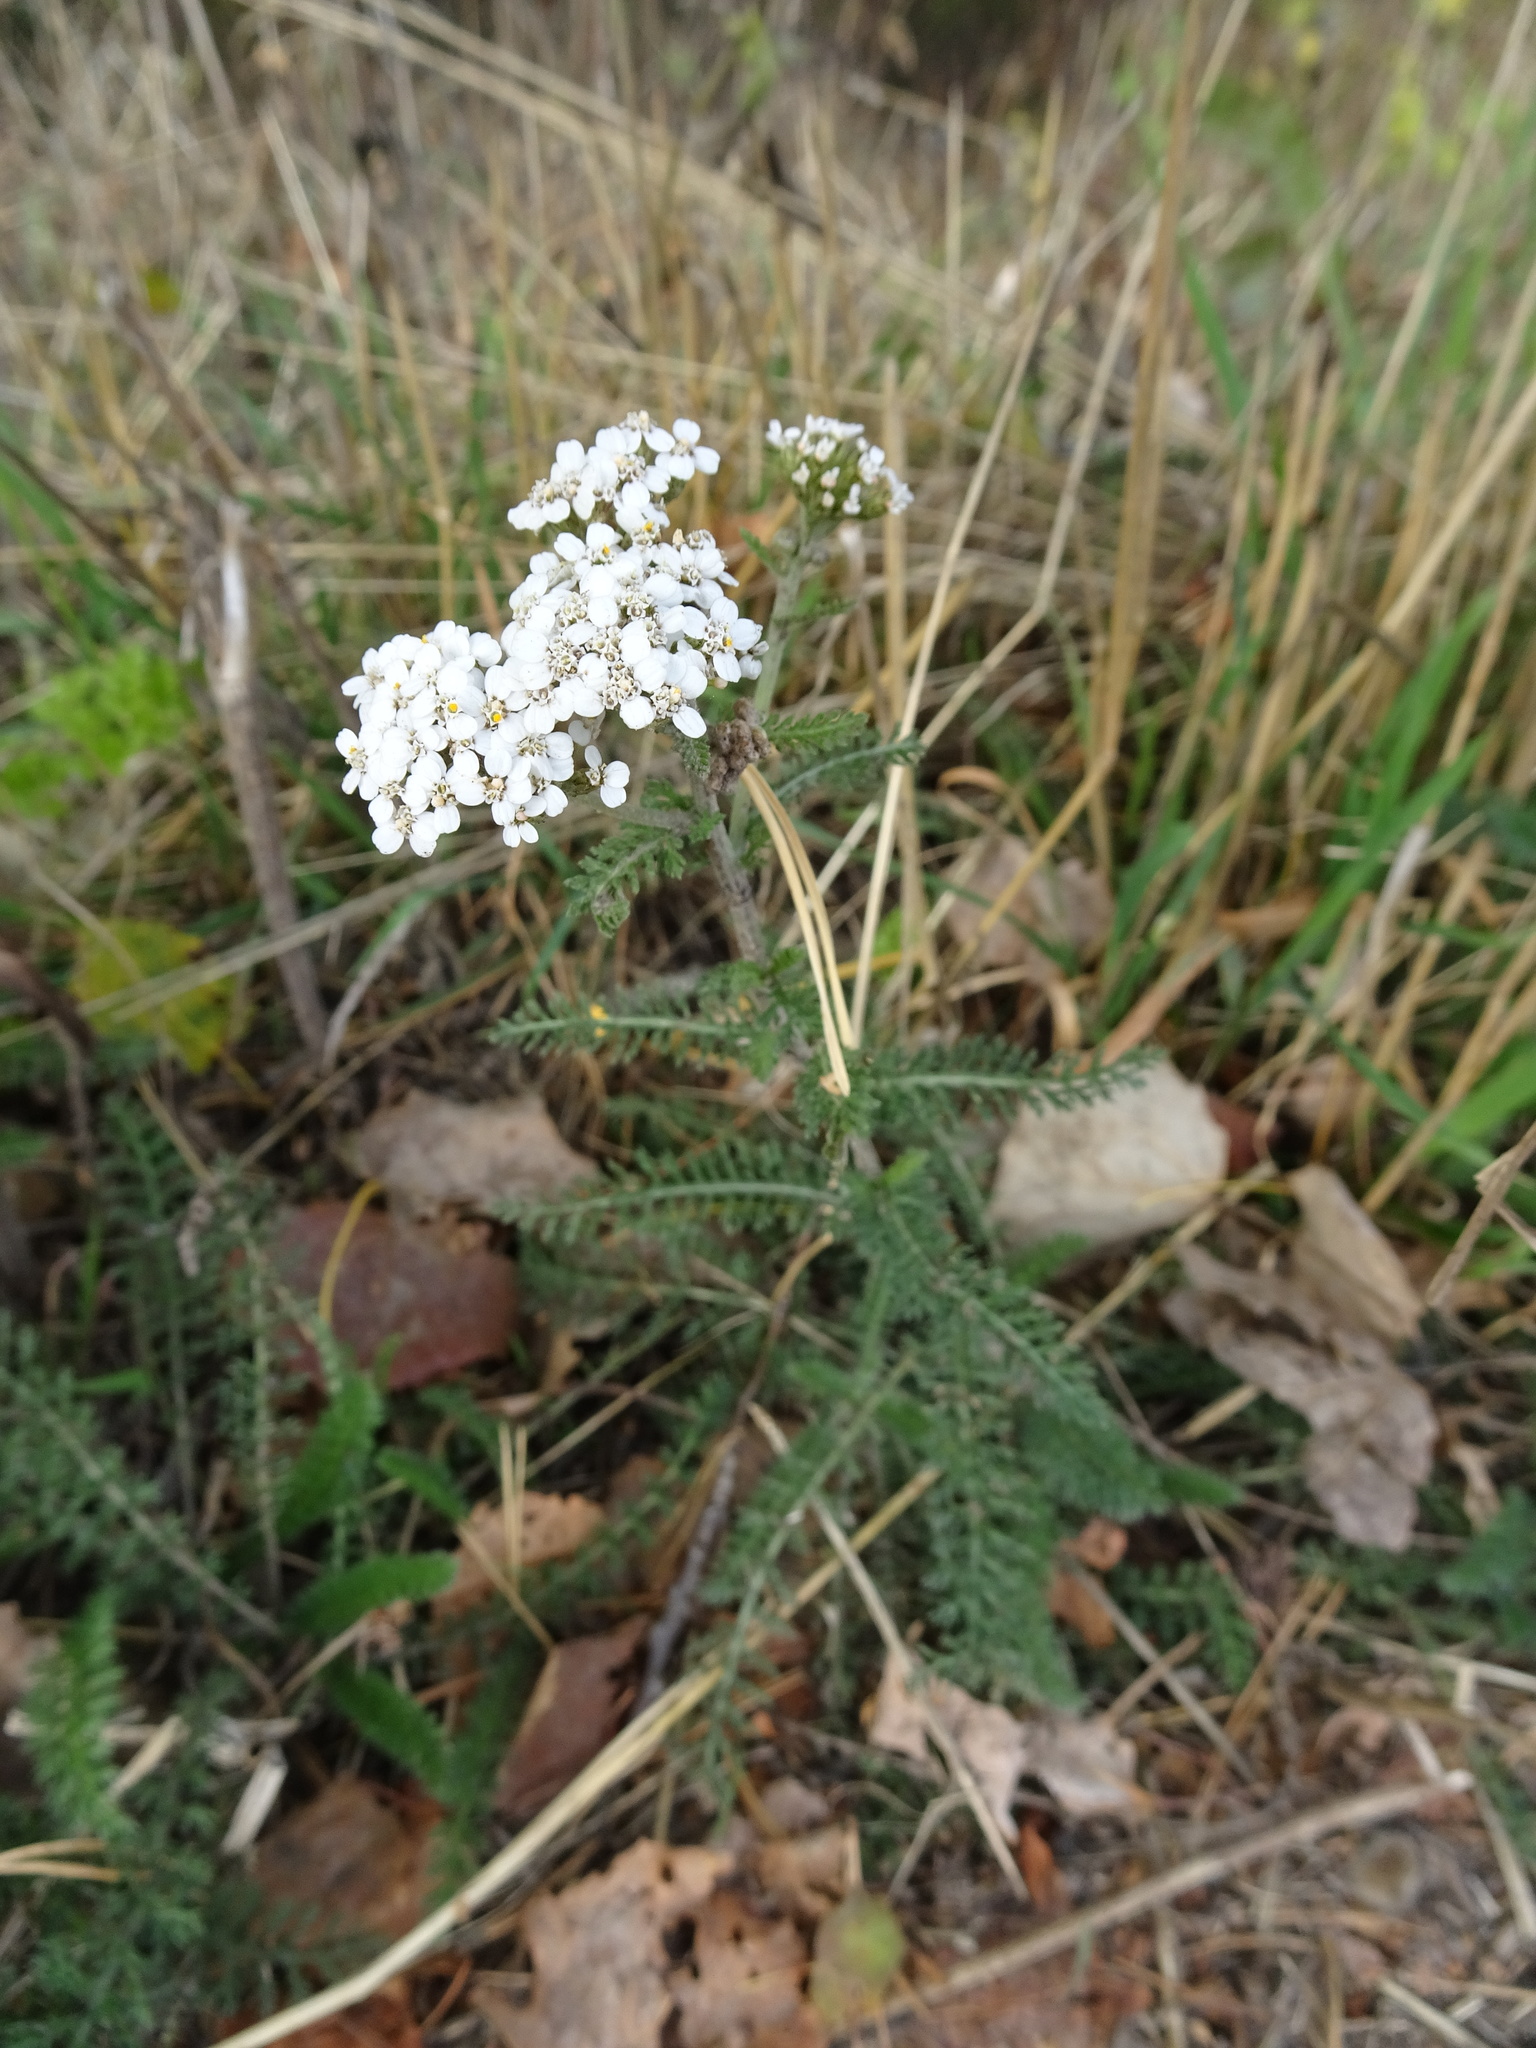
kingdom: Plantae
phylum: Tracheophyta
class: Magnoliopsida
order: Asterales
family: Asteraceae
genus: Achillea
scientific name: Achillea millefolium
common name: Yarrow
